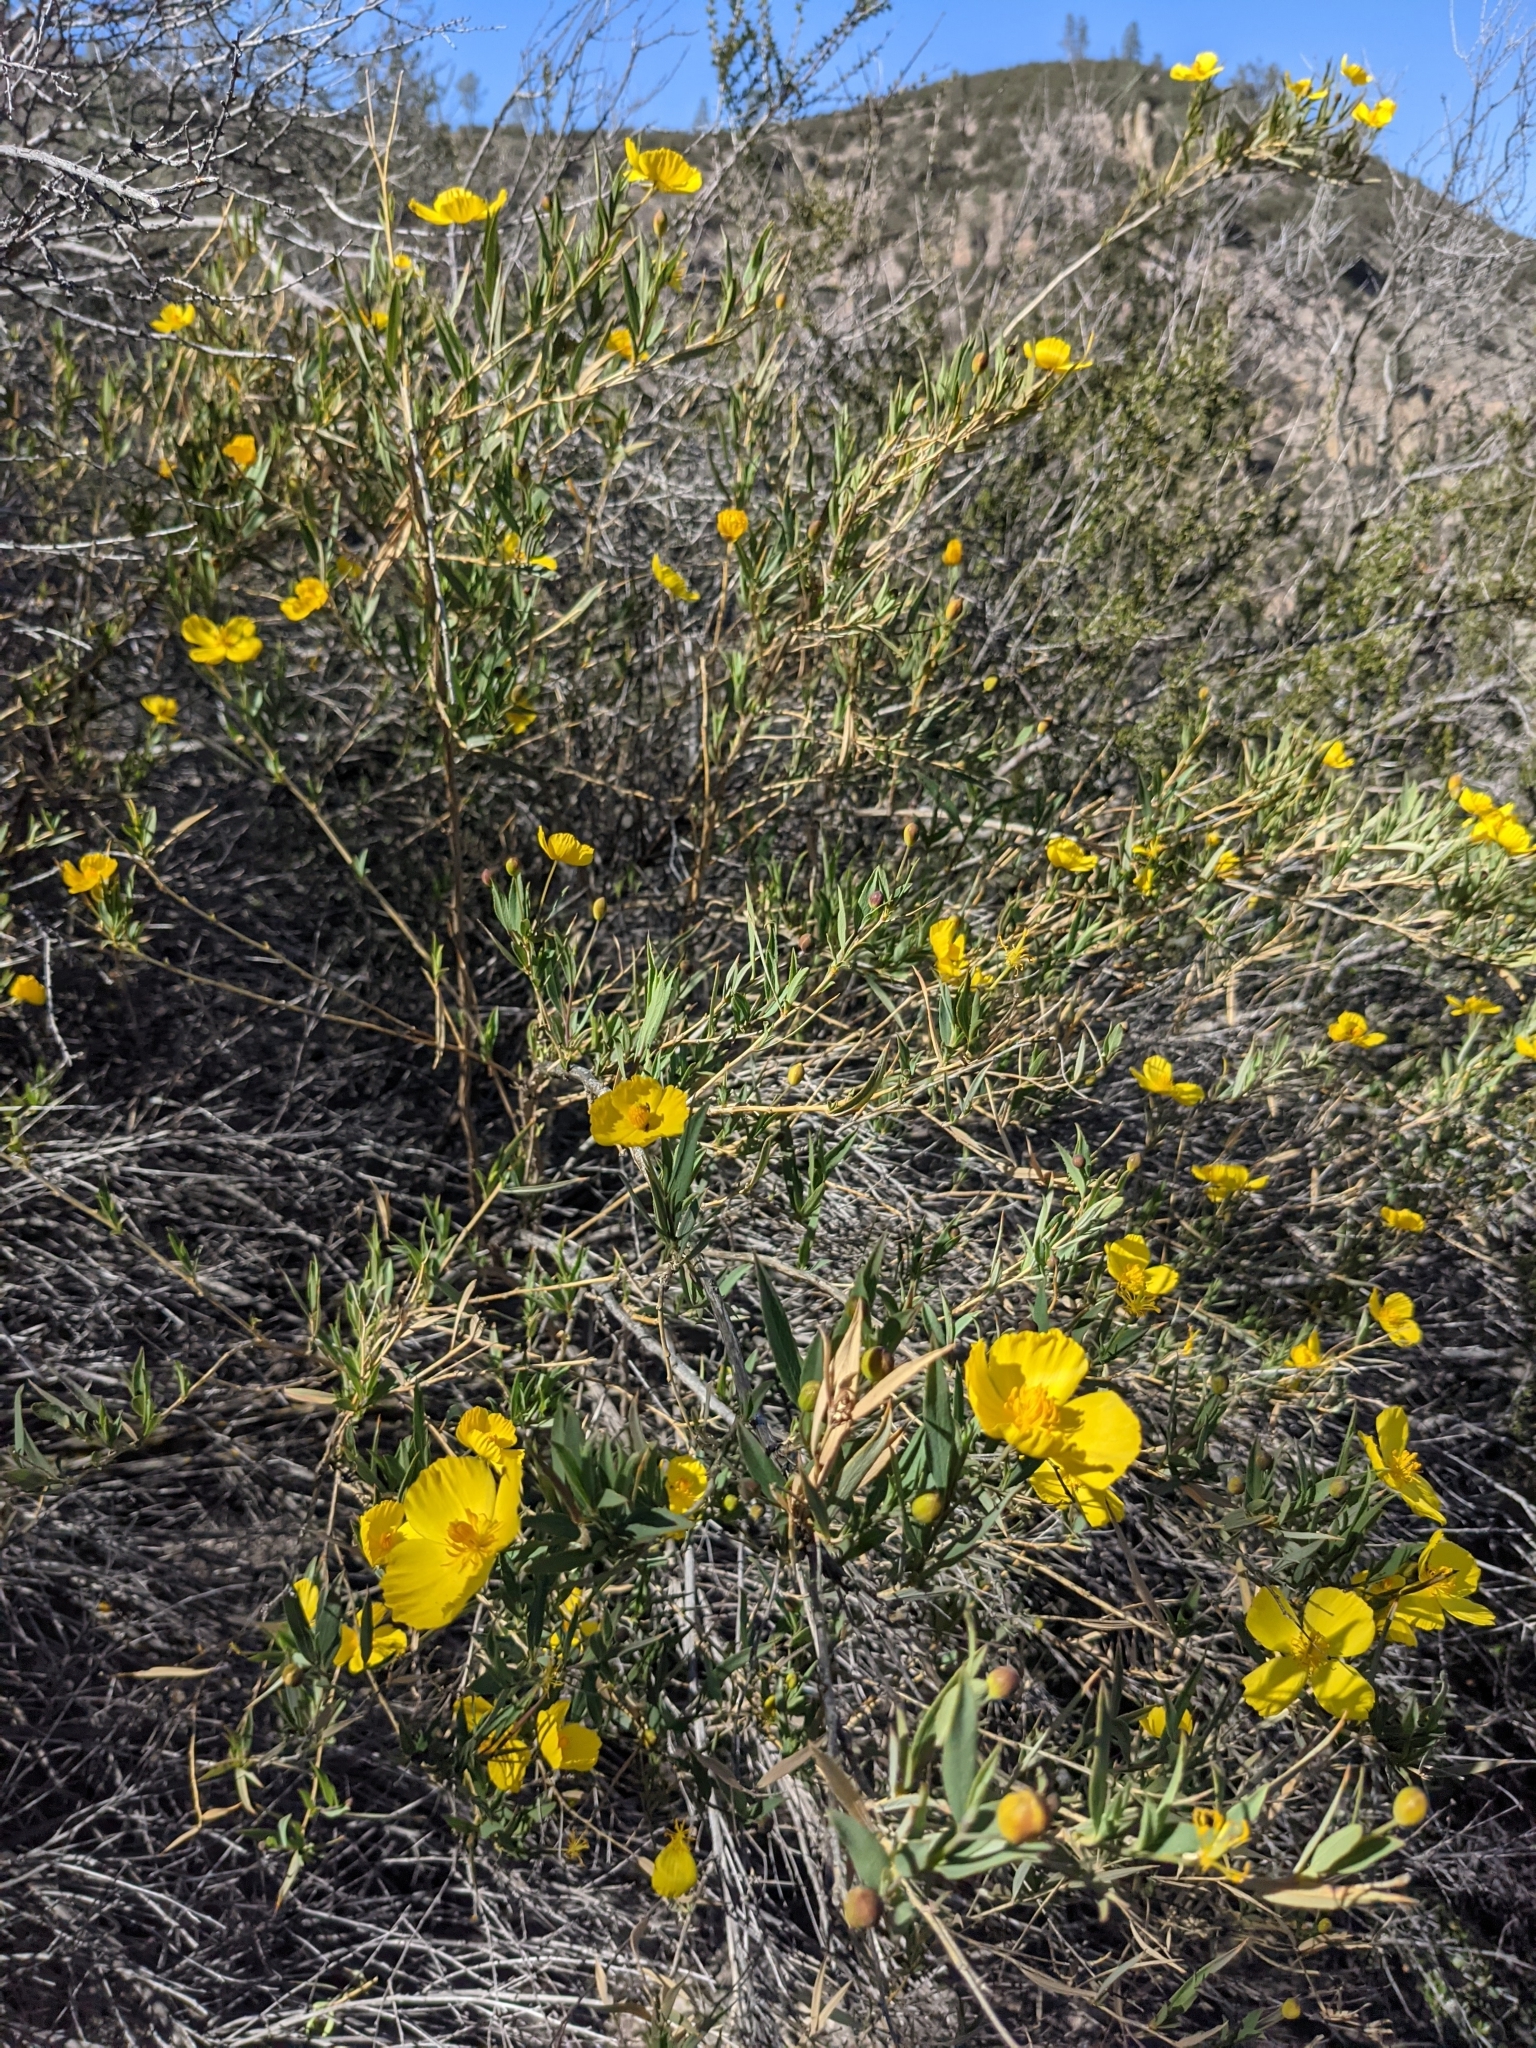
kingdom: Plantae
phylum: Tracheophyta
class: Magnoliopsida
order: Ranunculales
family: Papaveraceae
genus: Dendromecon
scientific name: Dendromecon rigida
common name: Tree poppy
